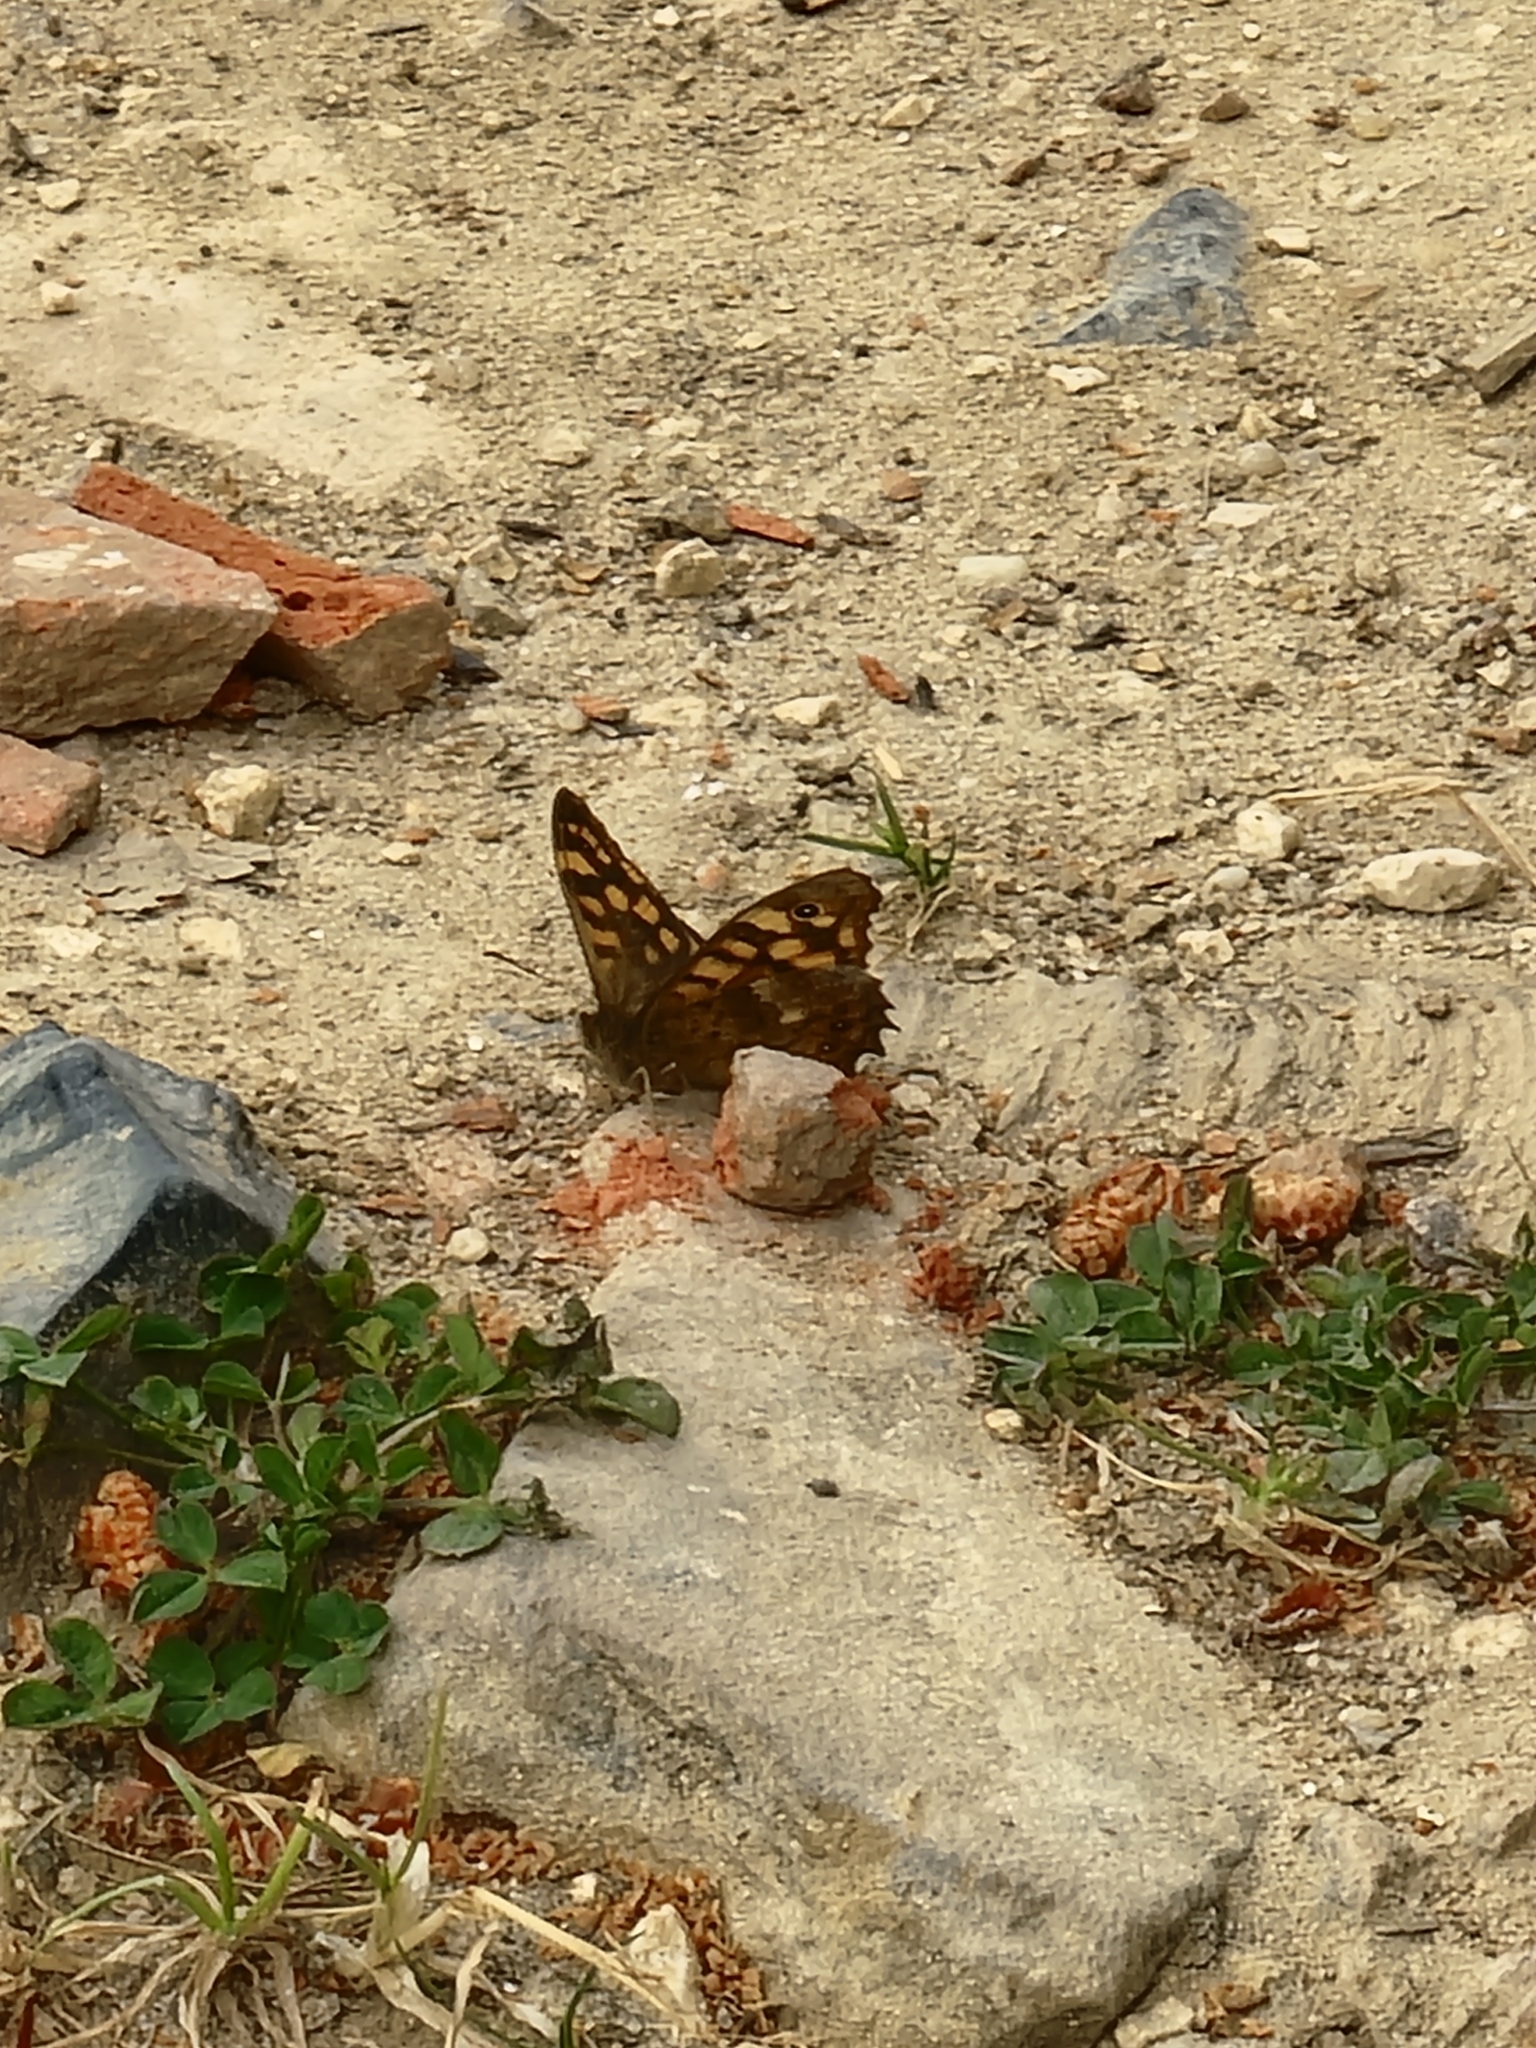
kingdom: Animalia
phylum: Arthropoda
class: Insecta
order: Lepidoptera
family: Nymphalidae
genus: Pararge
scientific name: Pararge aegeria
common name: Speckled wood
